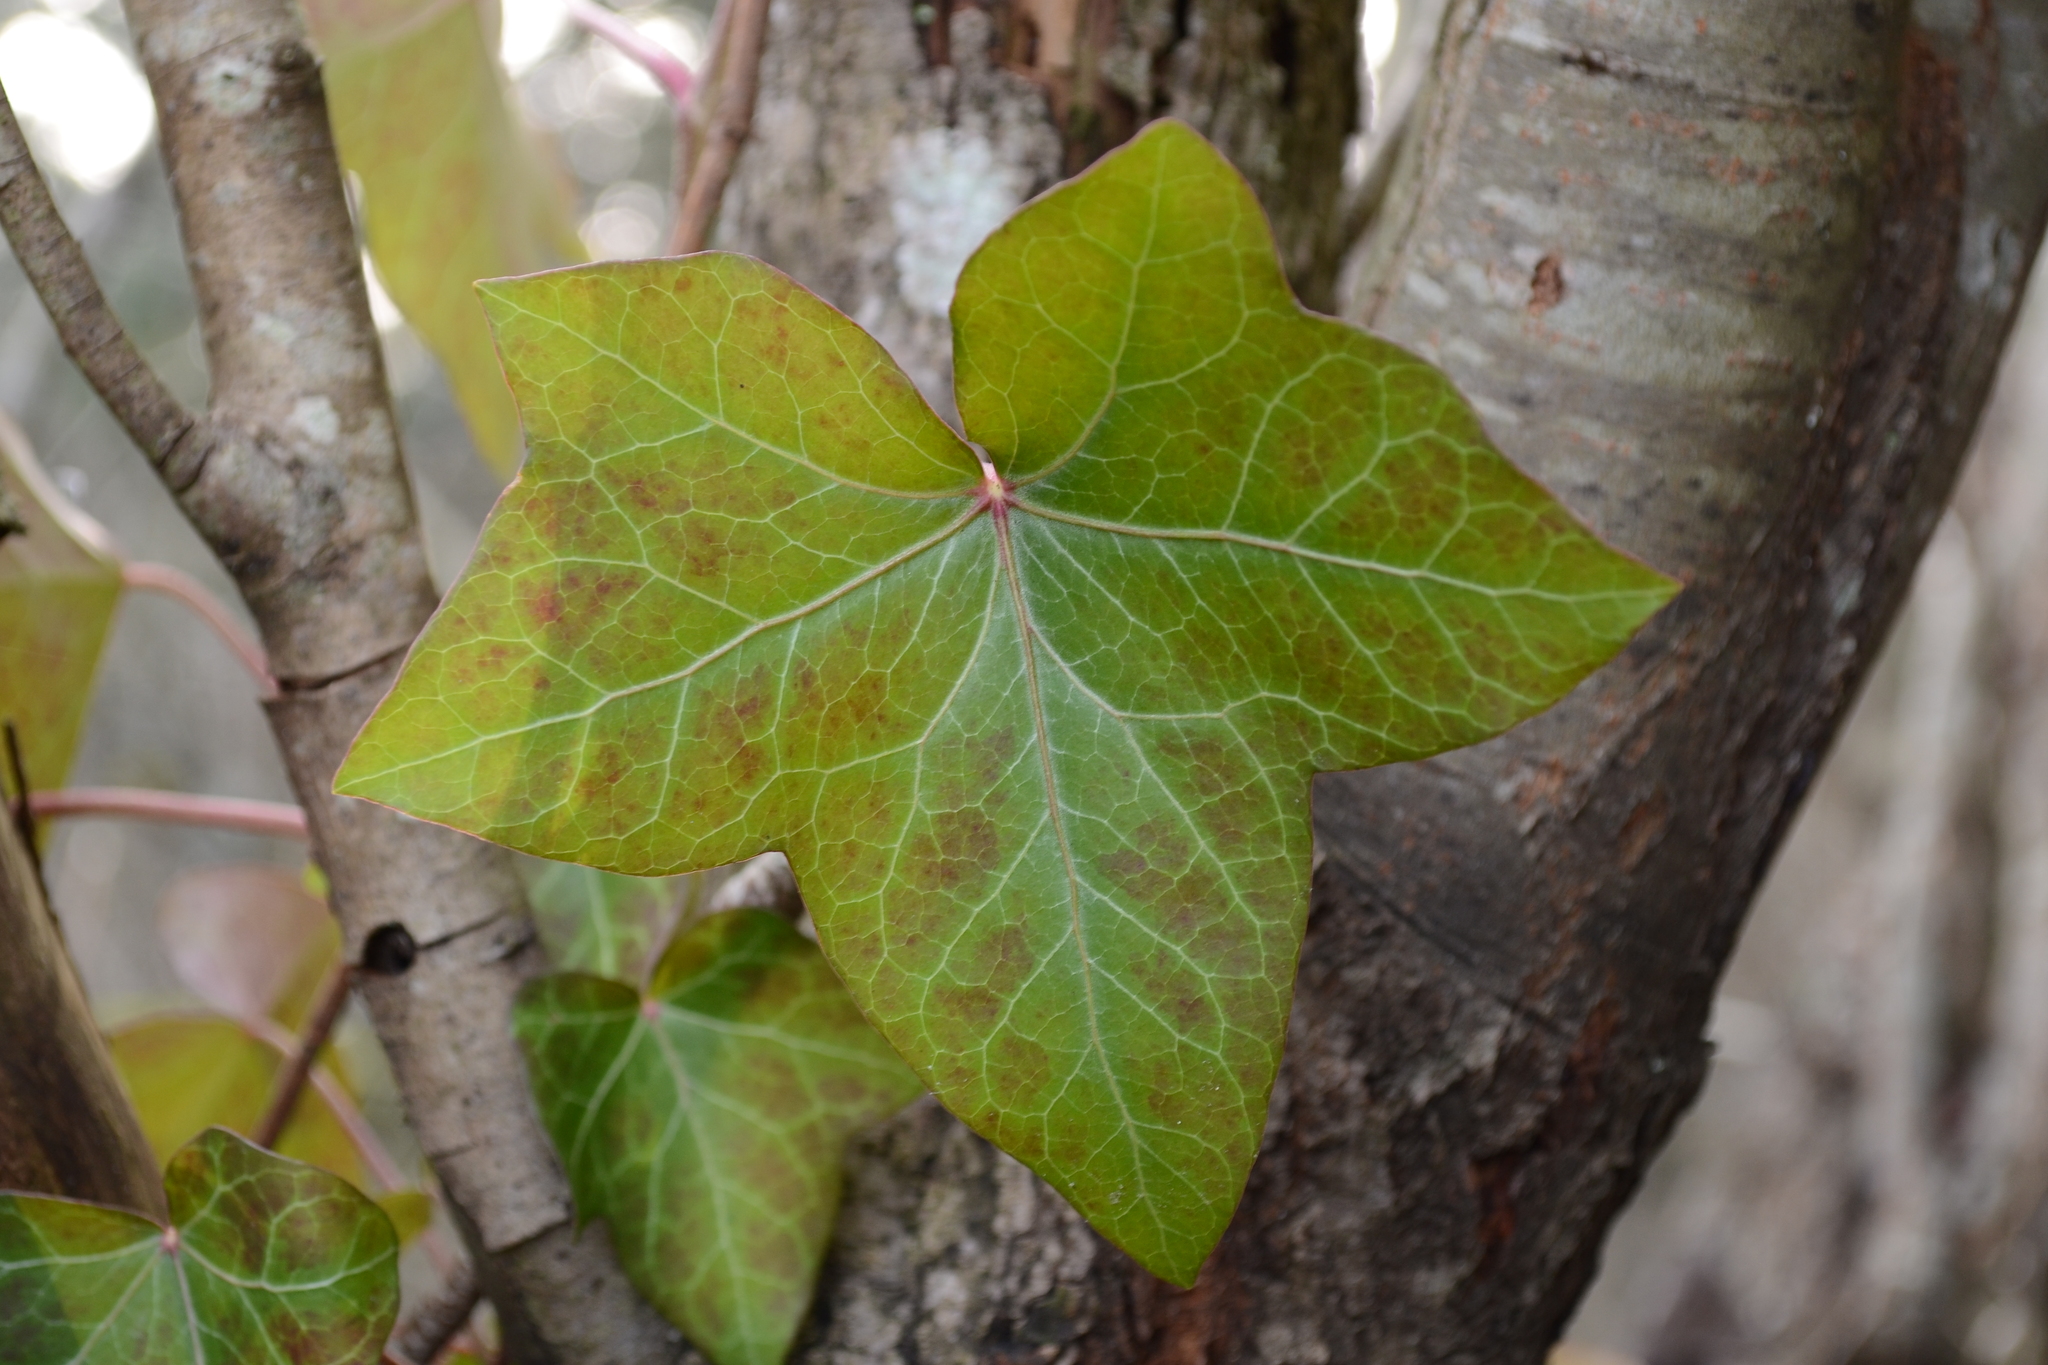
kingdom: Plantae
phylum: Tracheophyta
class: Magnoliopsida
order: Apiales
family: Araliaceae
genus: Hedera
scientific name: Hedera helix
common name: Ivy
